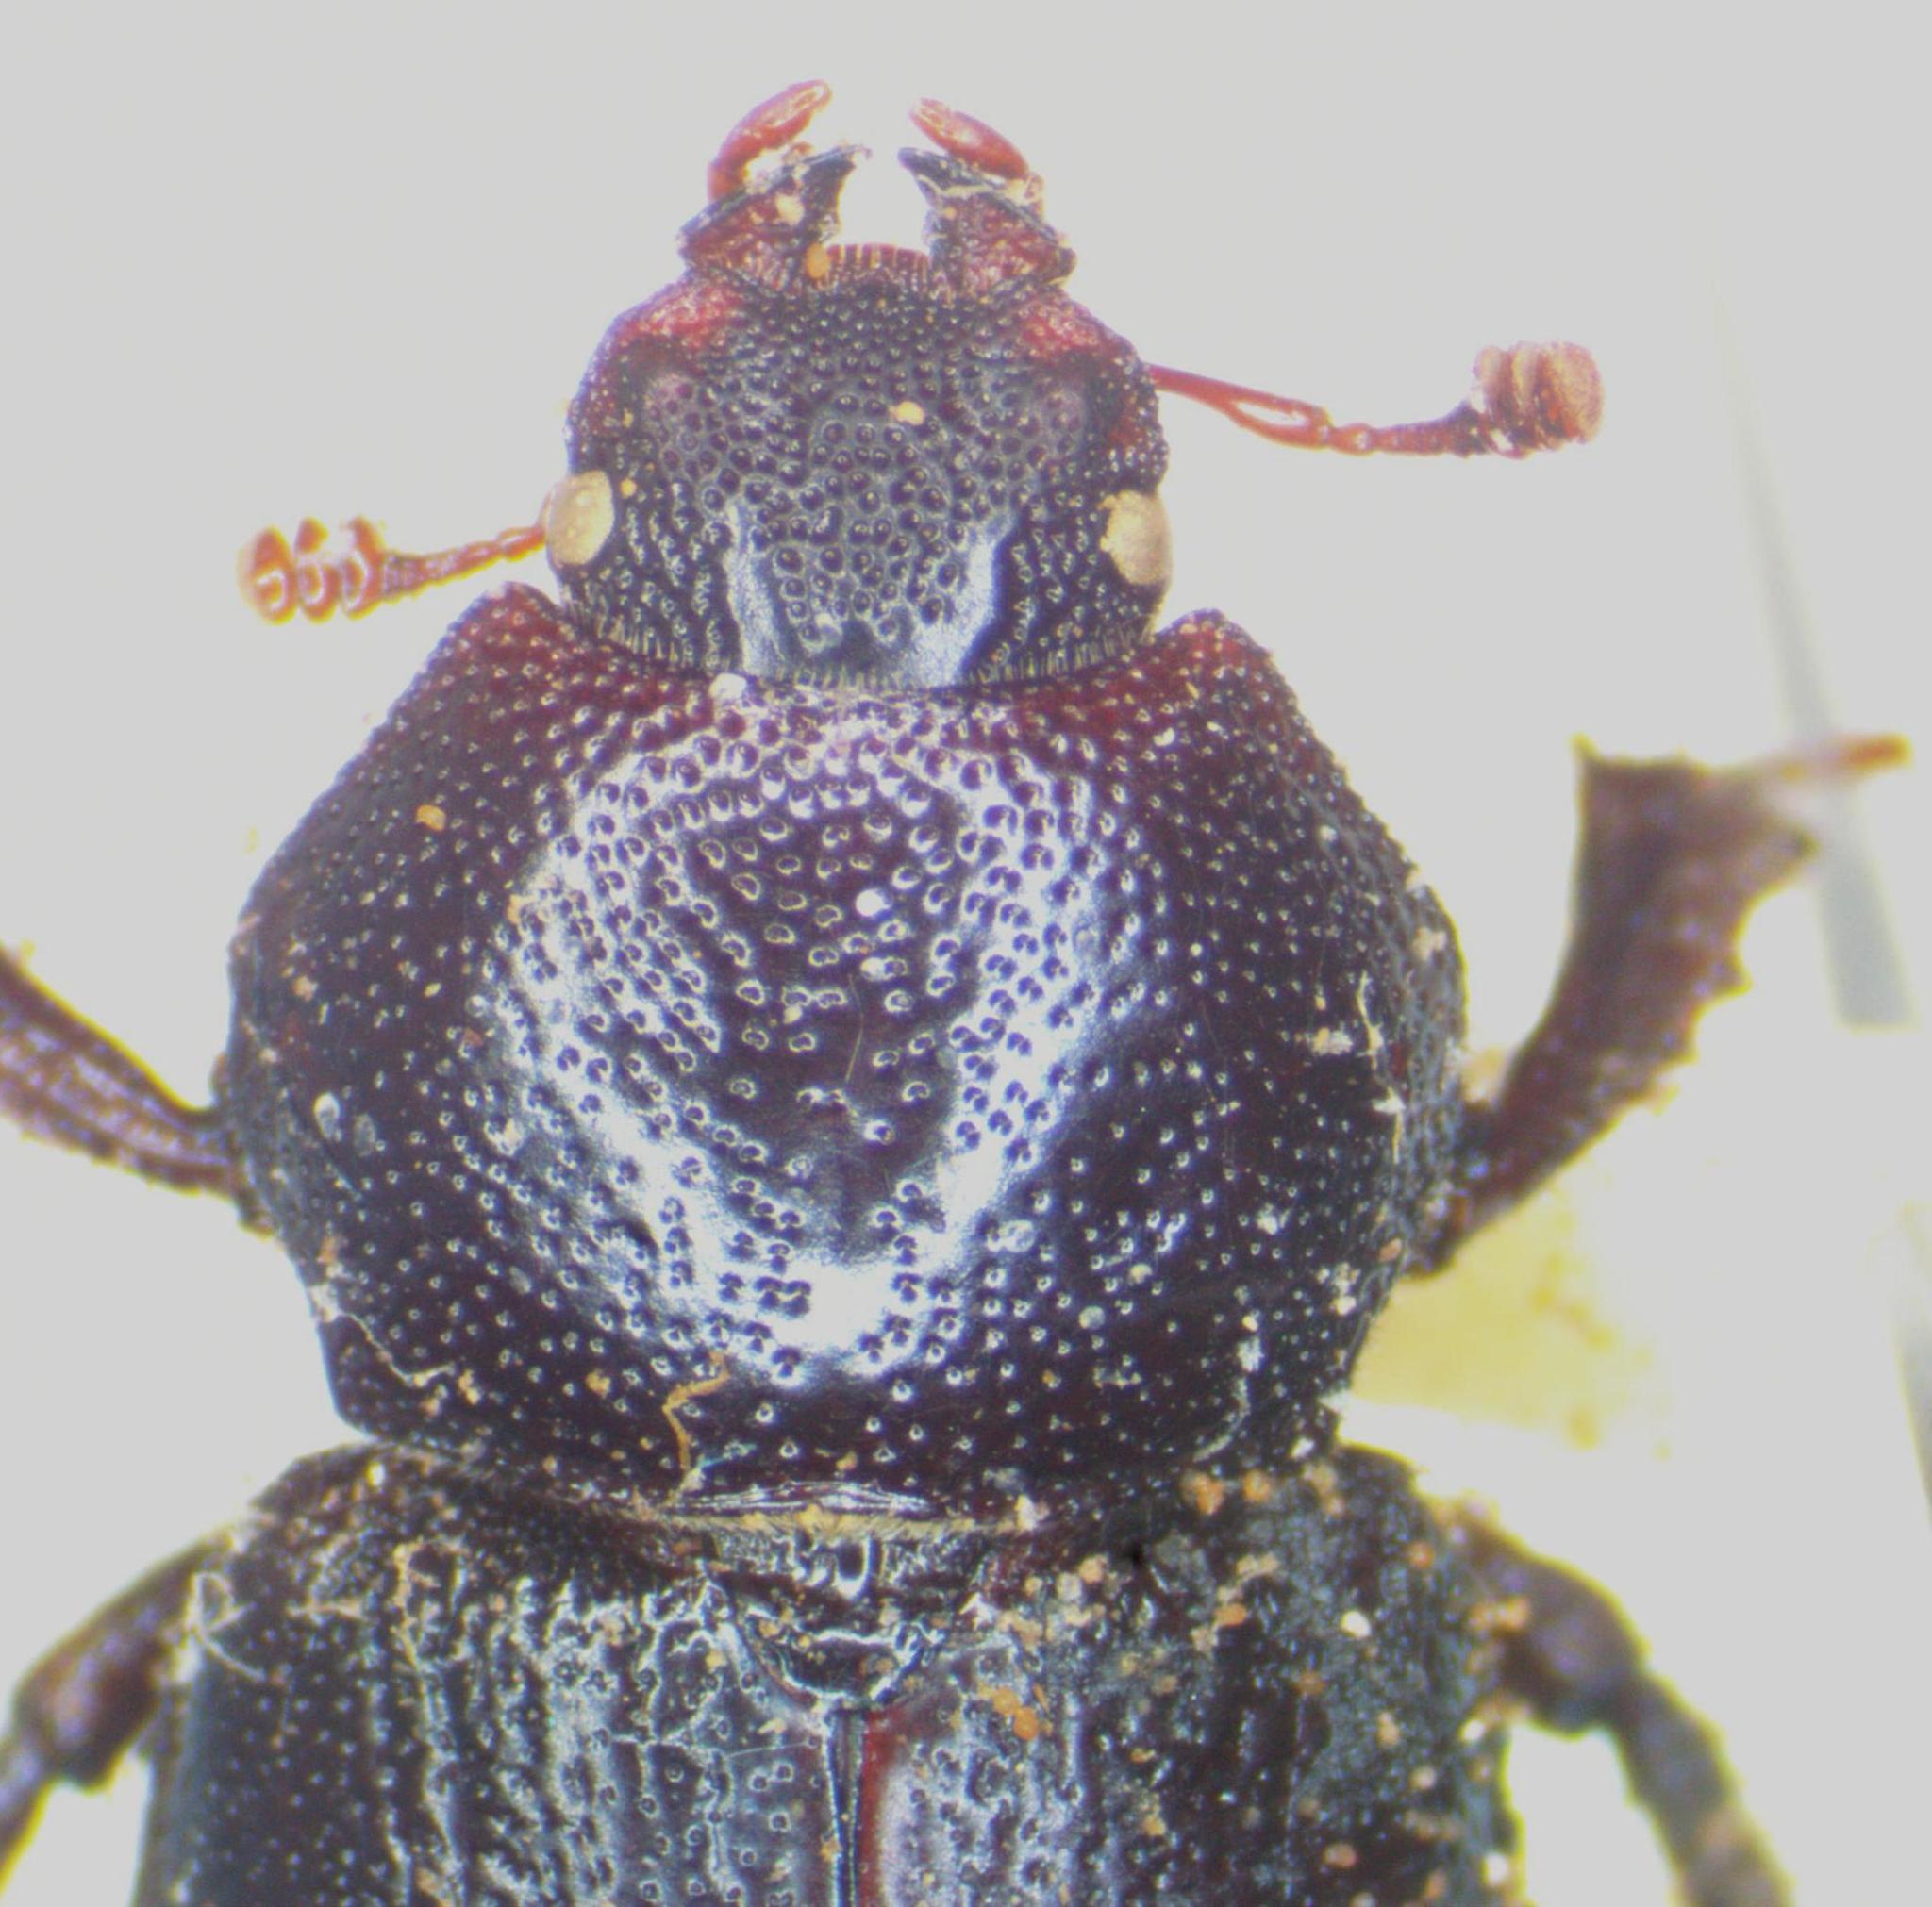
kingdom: Animalia
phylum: Arthropoda
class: Insecta
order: Coleoptera
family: Lucanidae
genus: Platyceroides
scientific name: Platyceroides keeni
